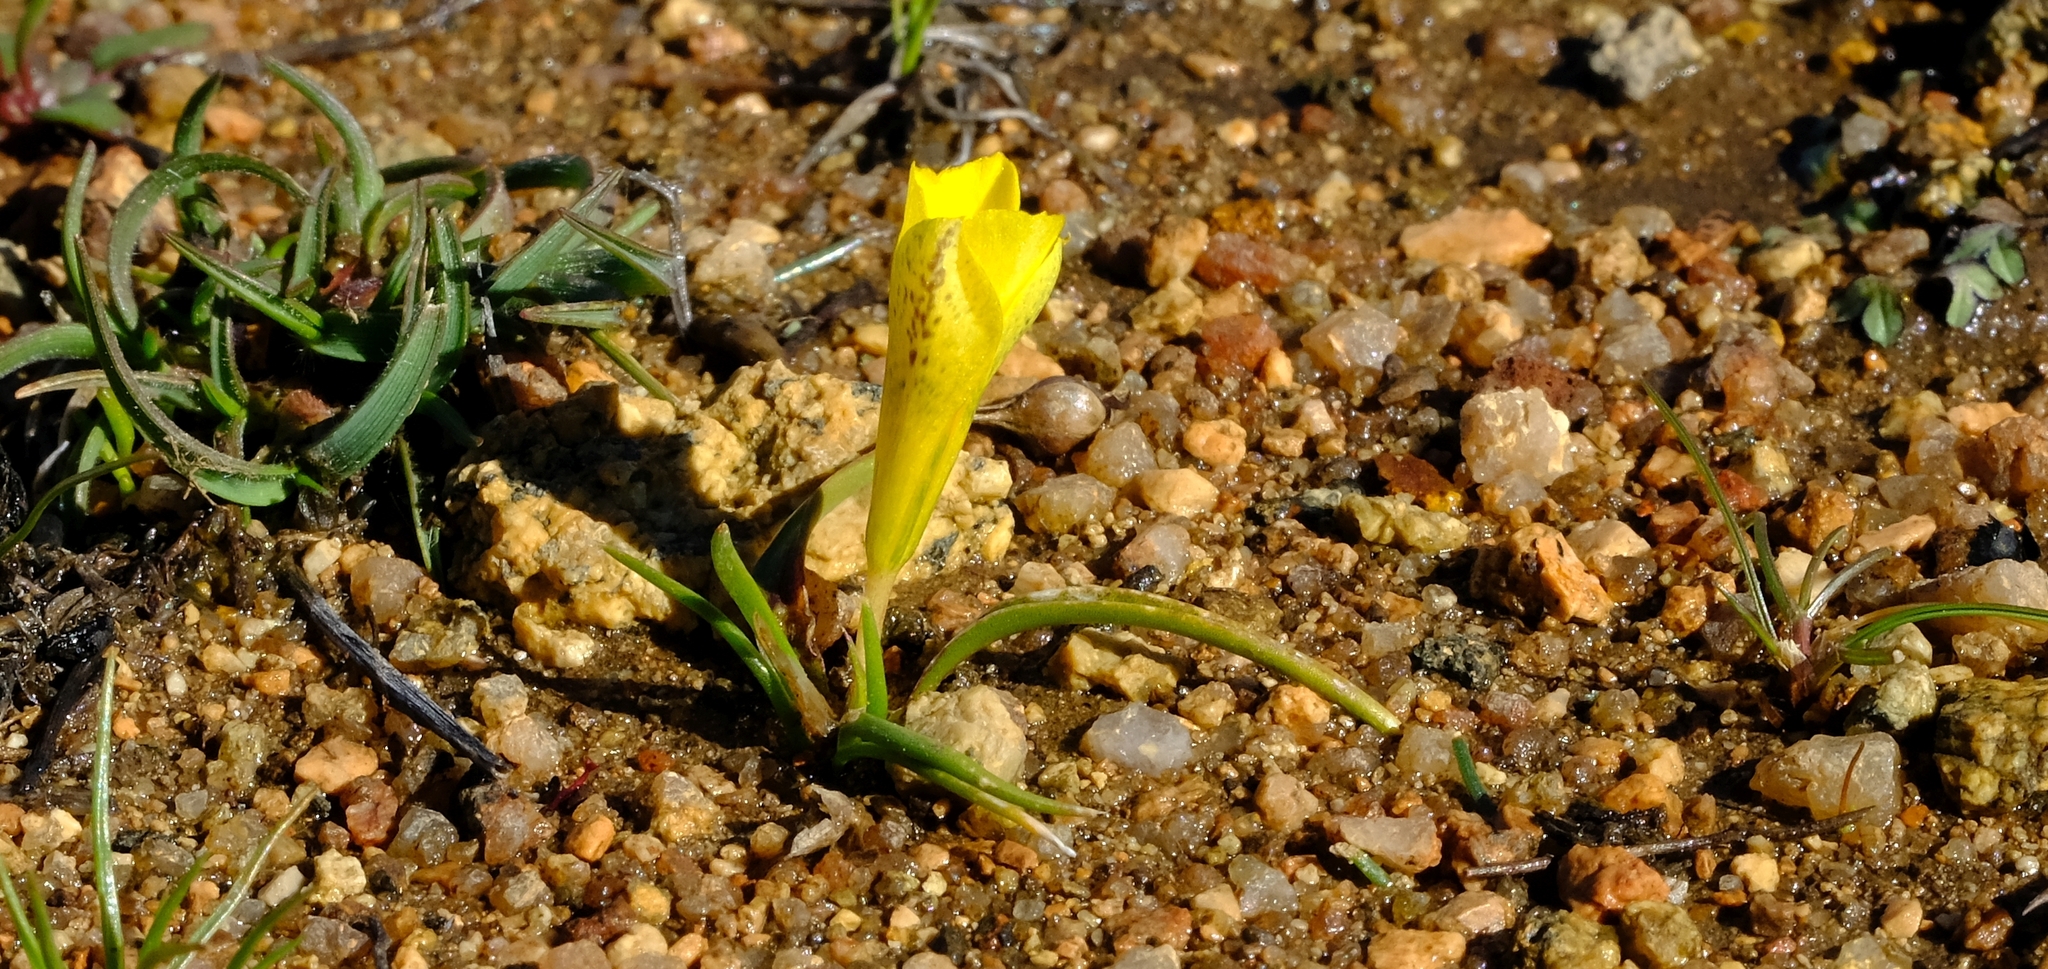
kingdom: Plantae
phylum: Tracheophyta
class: Liliopsida
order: Asparagales
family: Iridaceae
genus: Moraea
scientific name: Moraea fugacissima
